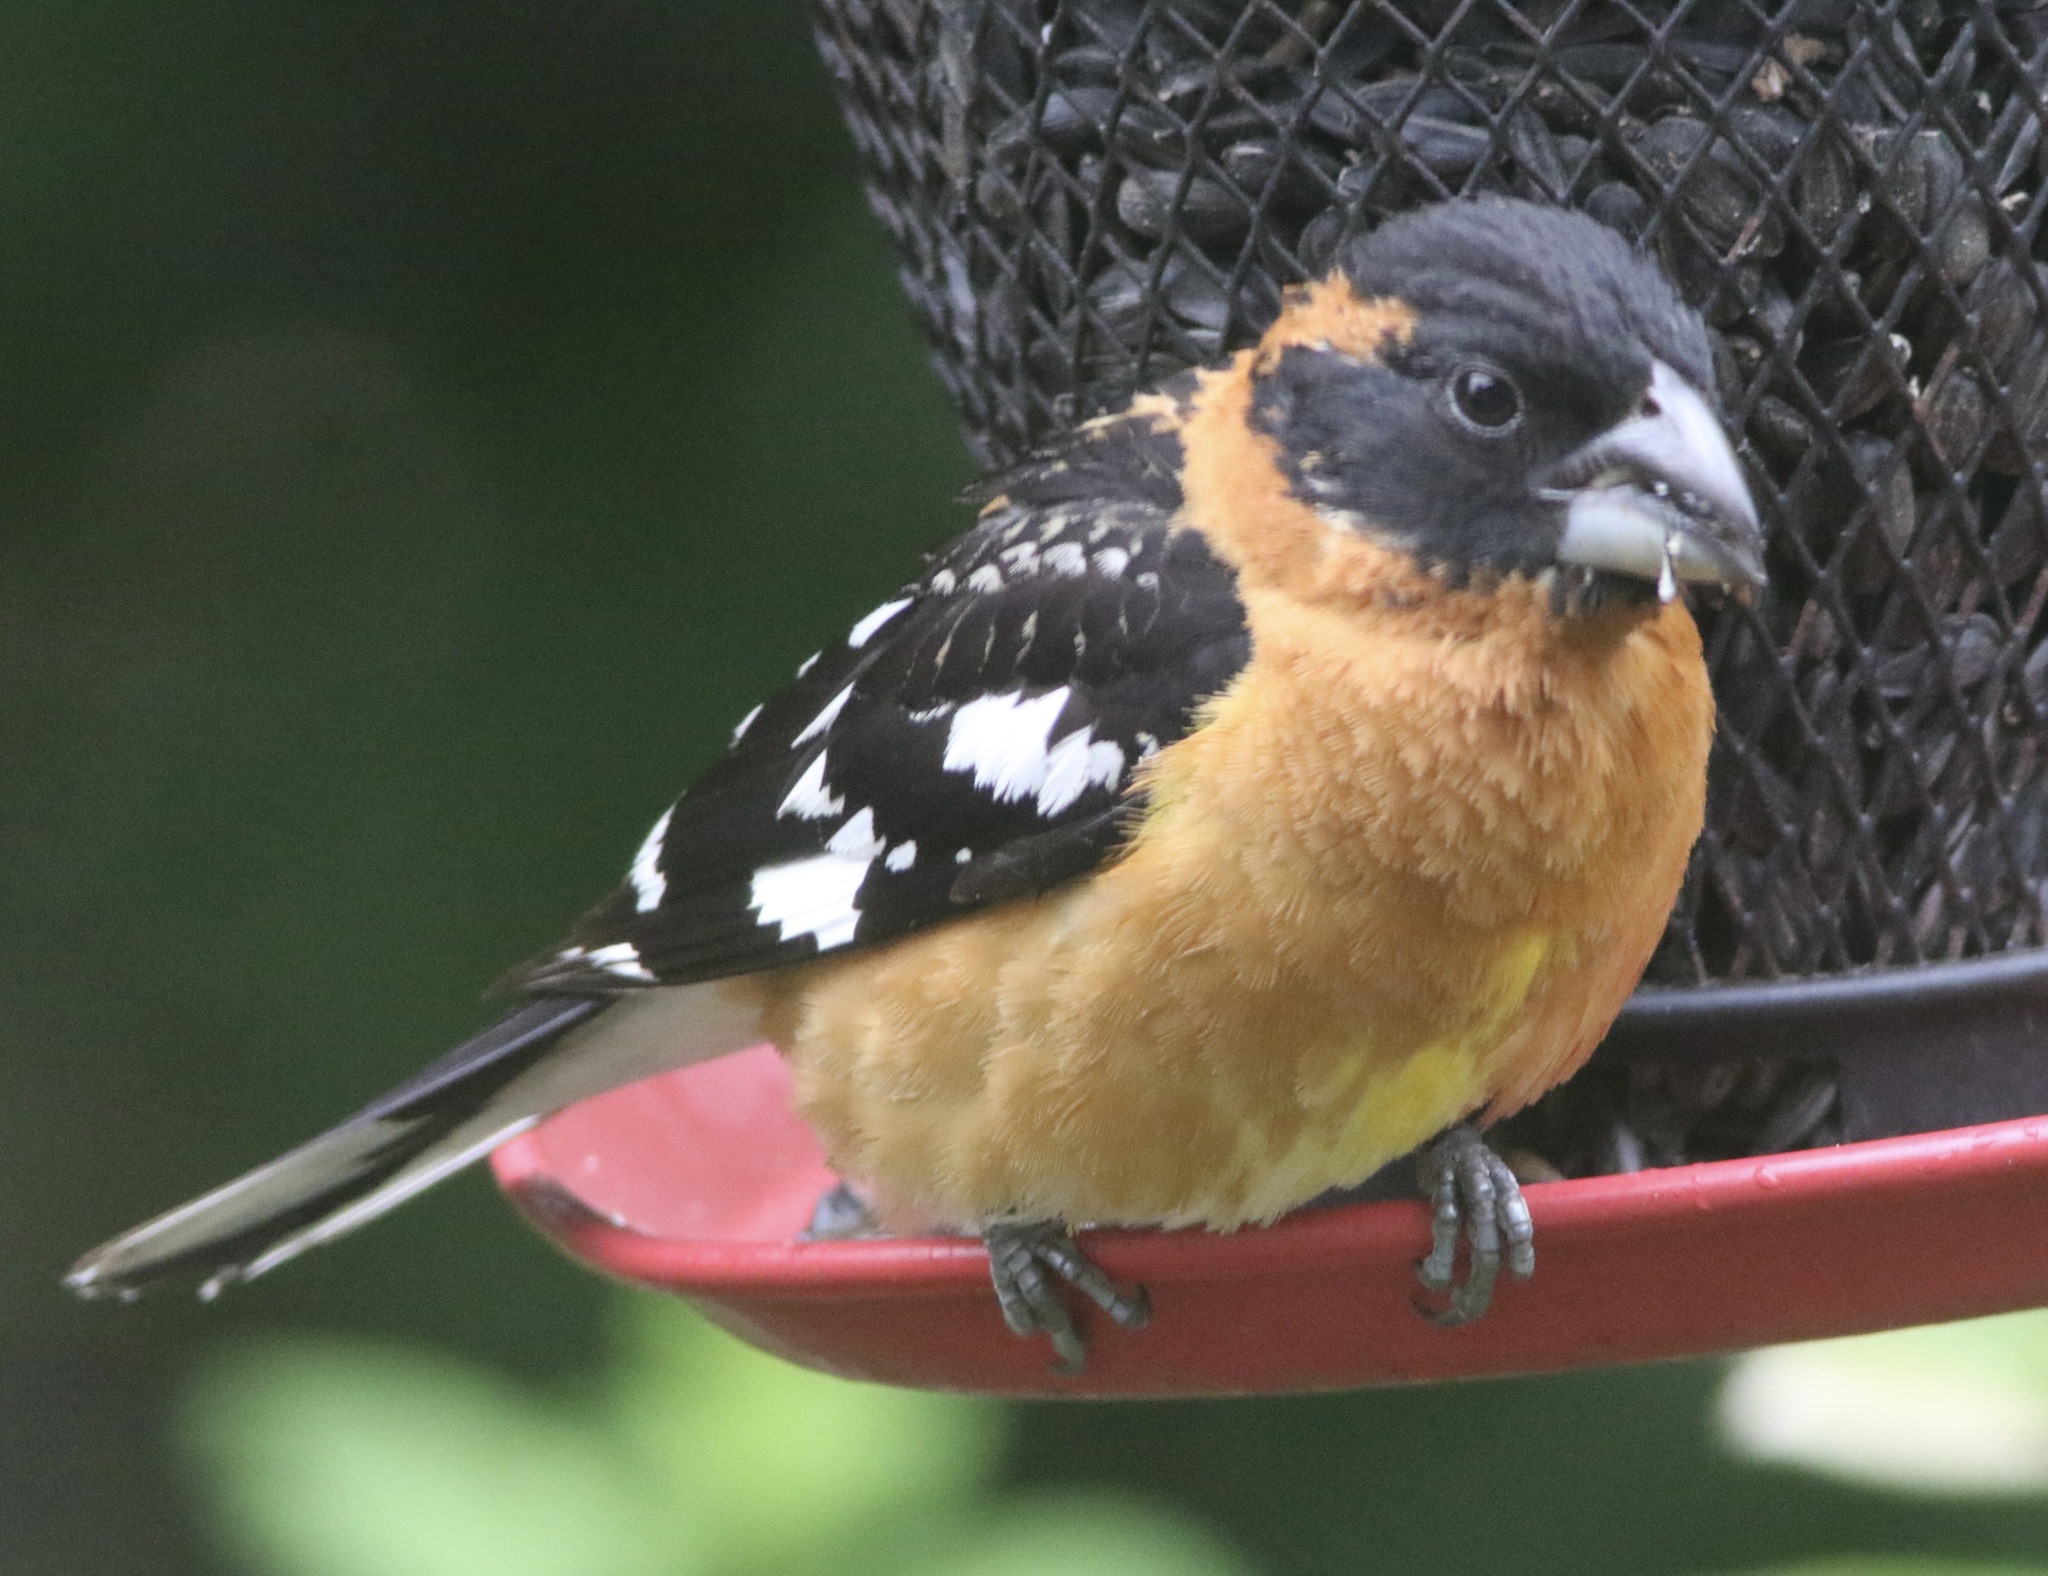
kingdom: Animalia
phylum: Chordata
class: Aves
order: Passeriformes
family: Cardinalidae
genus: Pheucticus
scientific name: Pheucticus melanocephalus
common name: Black-headed grosbeak
